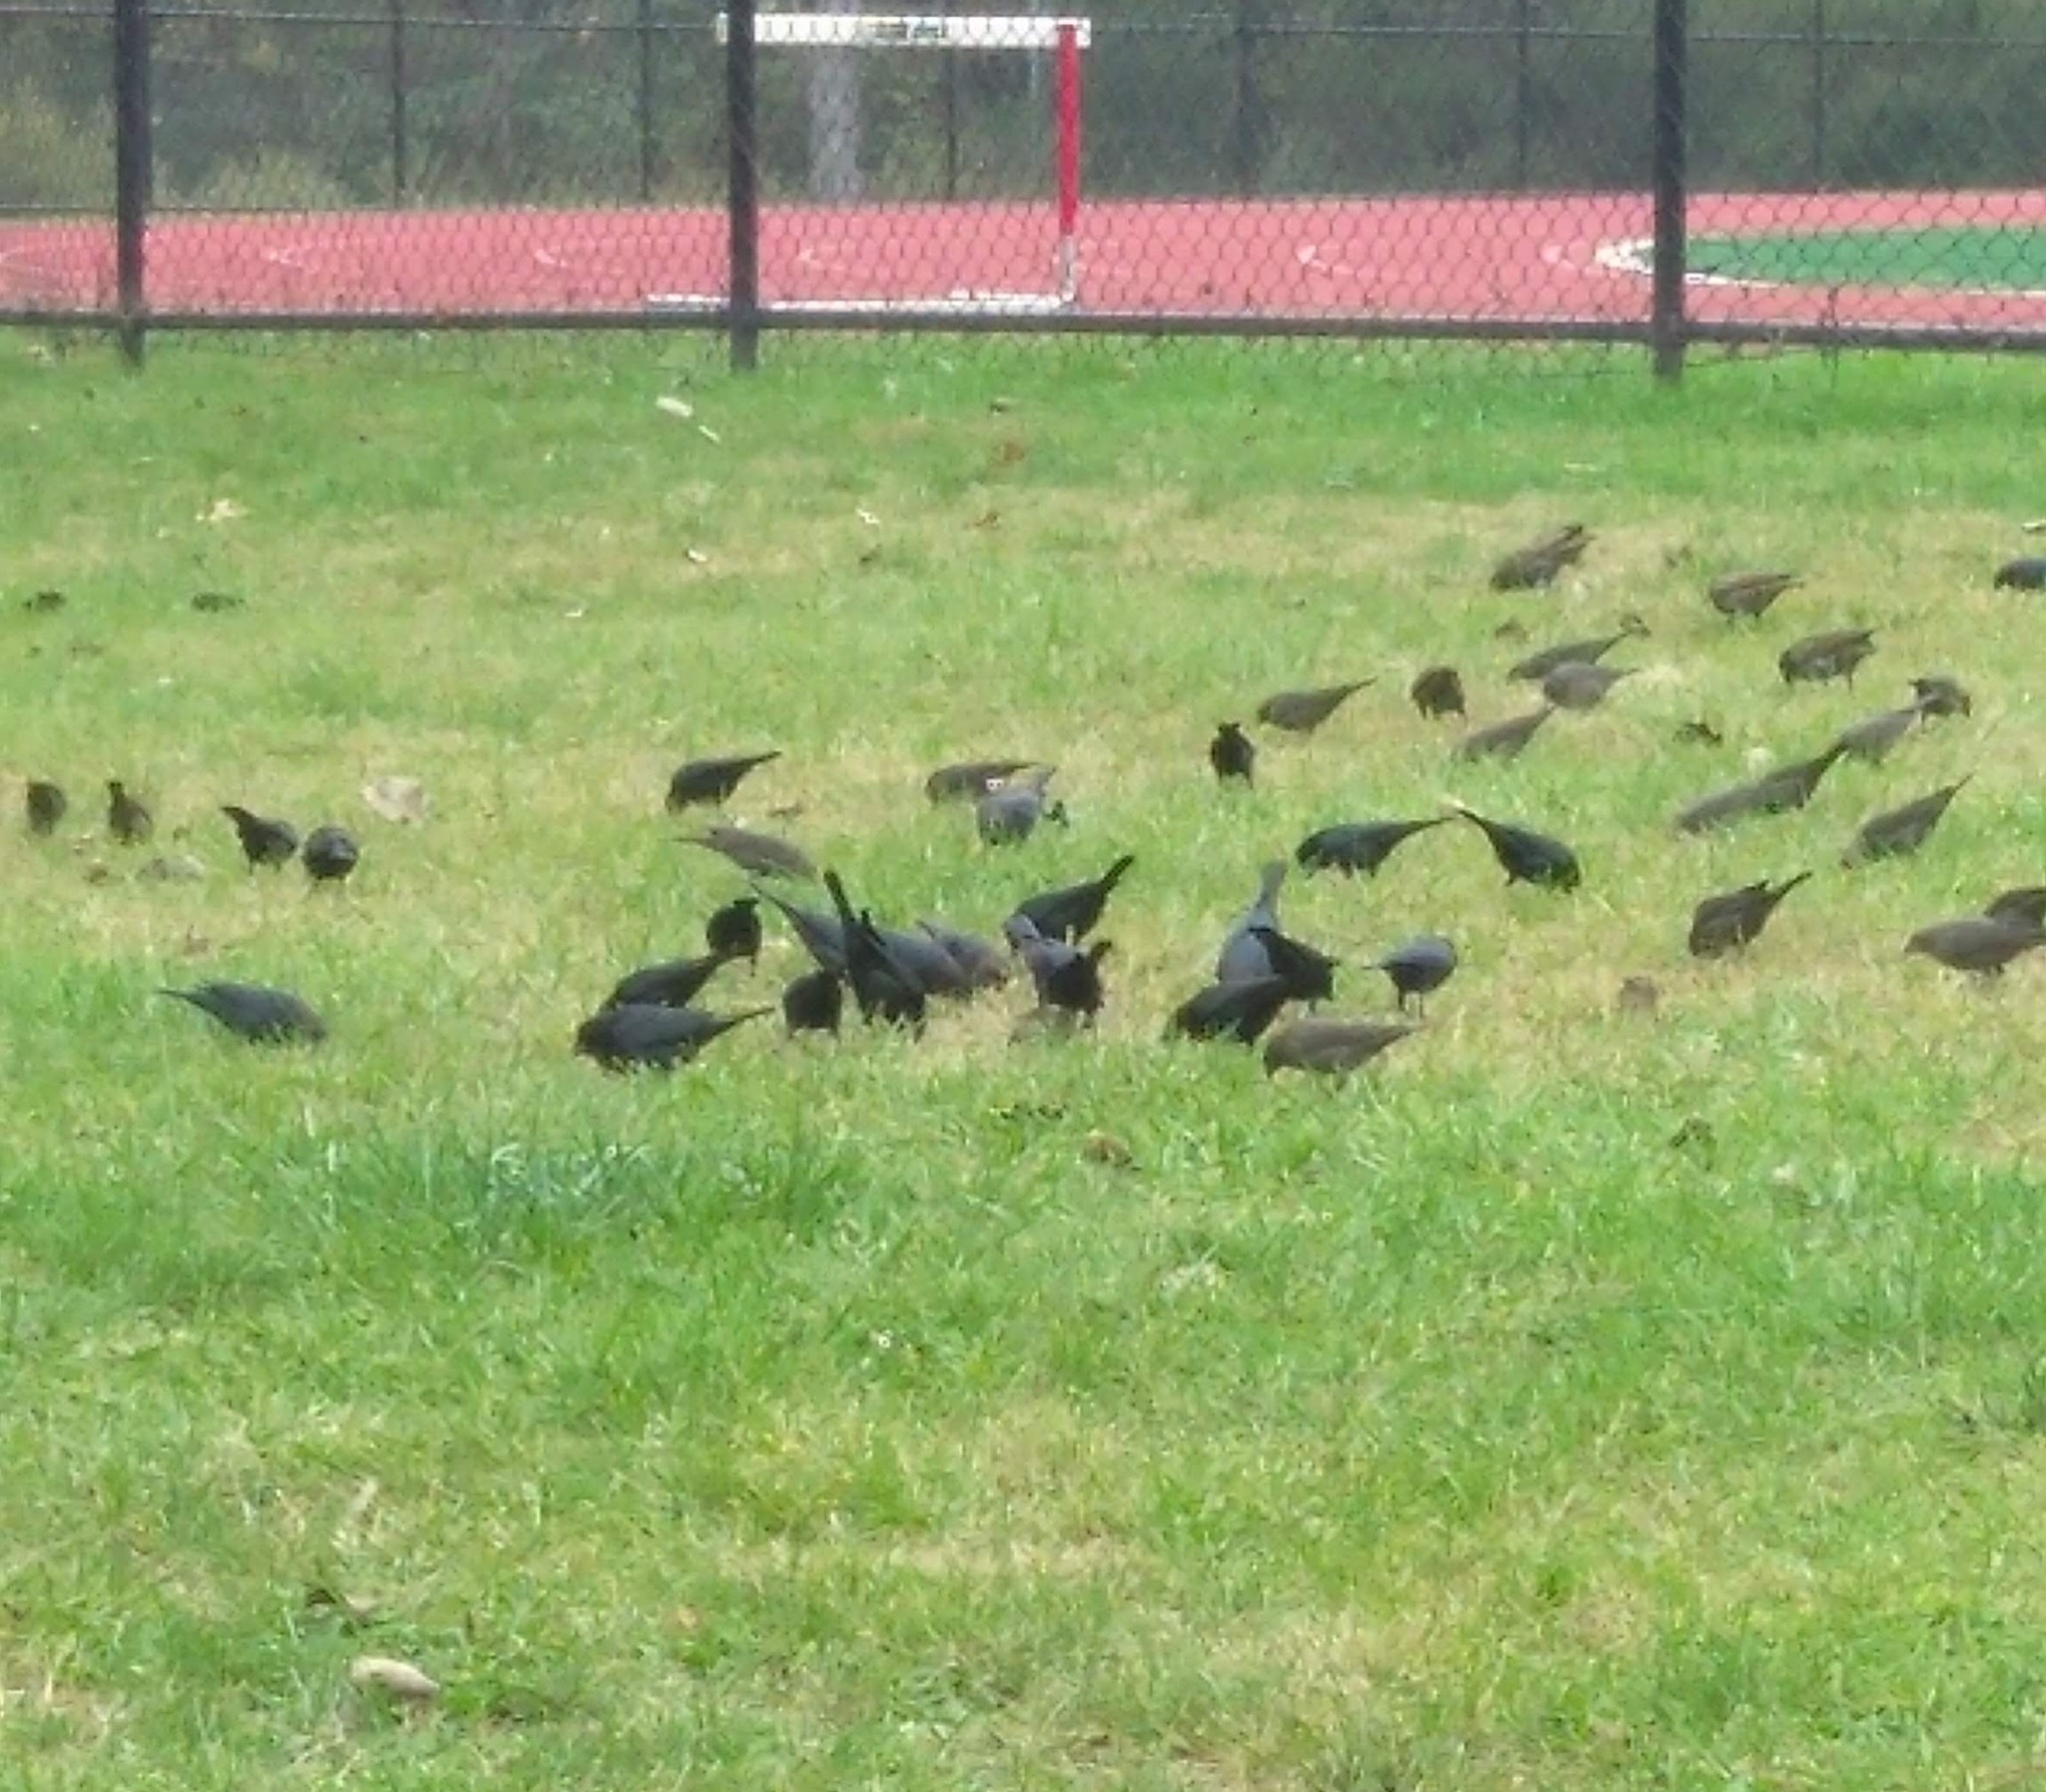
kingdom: Animalia
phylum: Chordata
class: Aves
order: Passeriformes
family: Icteridae
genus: Molothrus
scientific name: Molothrus ater
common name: Brown-headed cowbird
